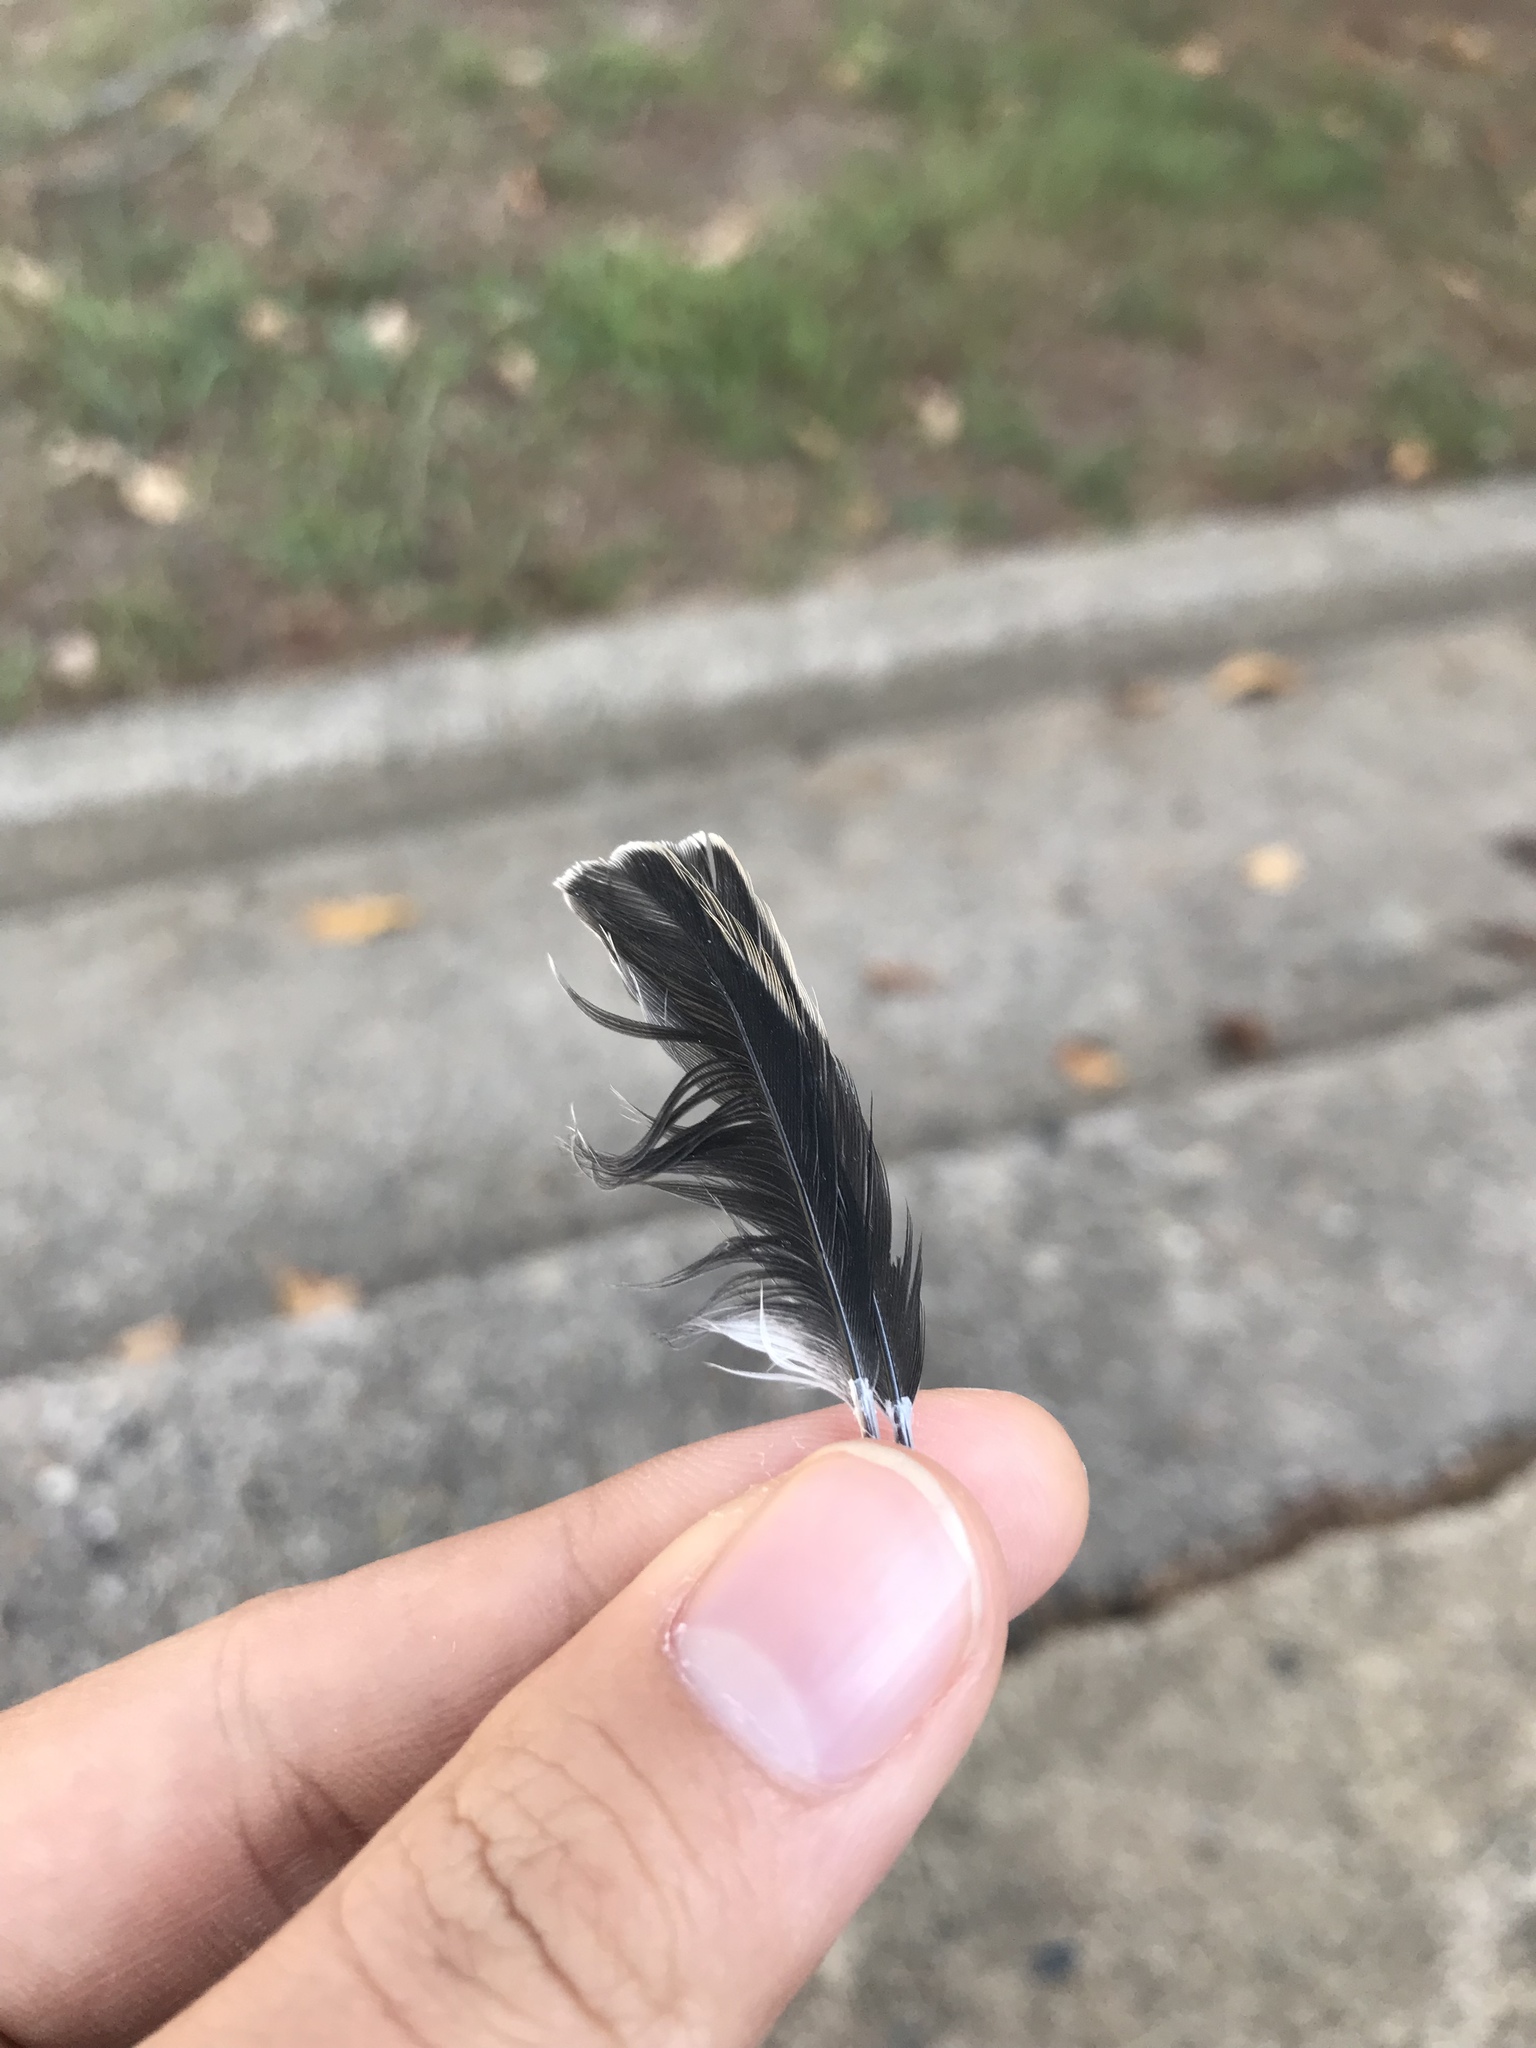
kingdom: Animalia
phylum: Chordata
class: Aves
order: Passeriformes
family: Fringillidae
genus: Spinus
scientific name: Spinus tristis
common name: American goldfinch
